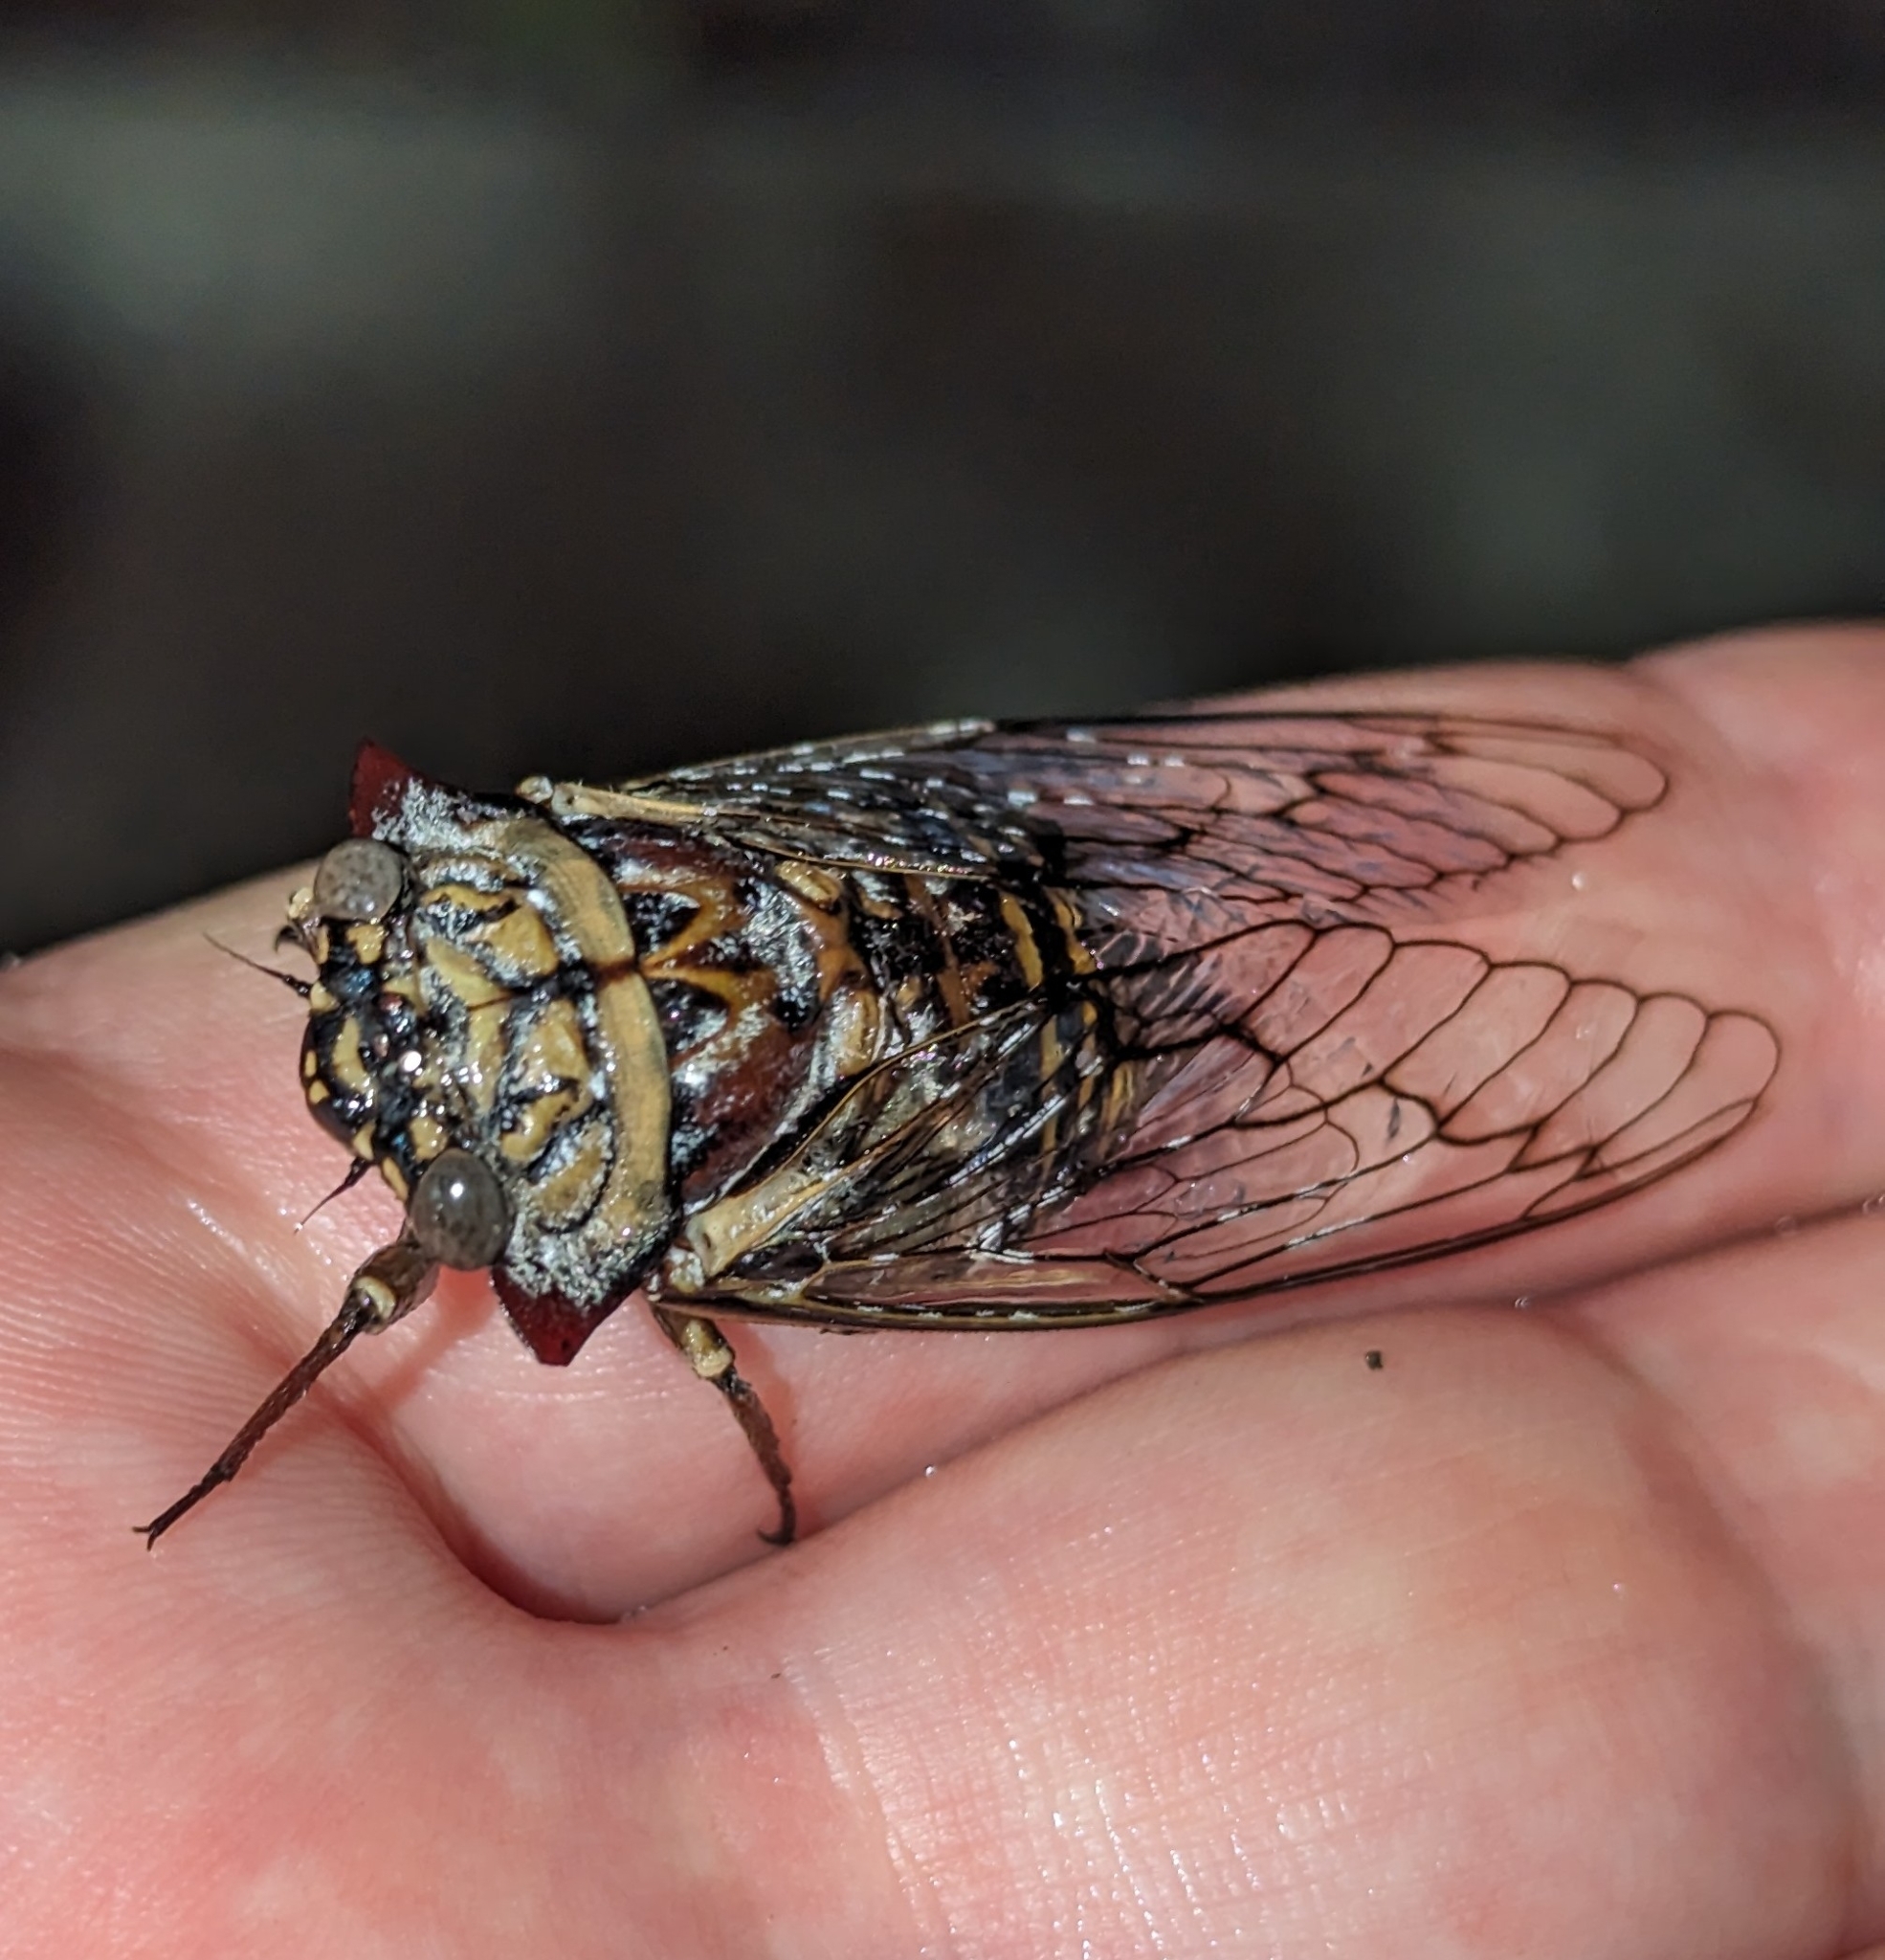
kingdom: Animalia
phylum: Arthropoda
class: Insecta
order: Hemiptera
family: Cicadidae
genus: Oxypleura
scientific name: Oxypleura quadraticollis
